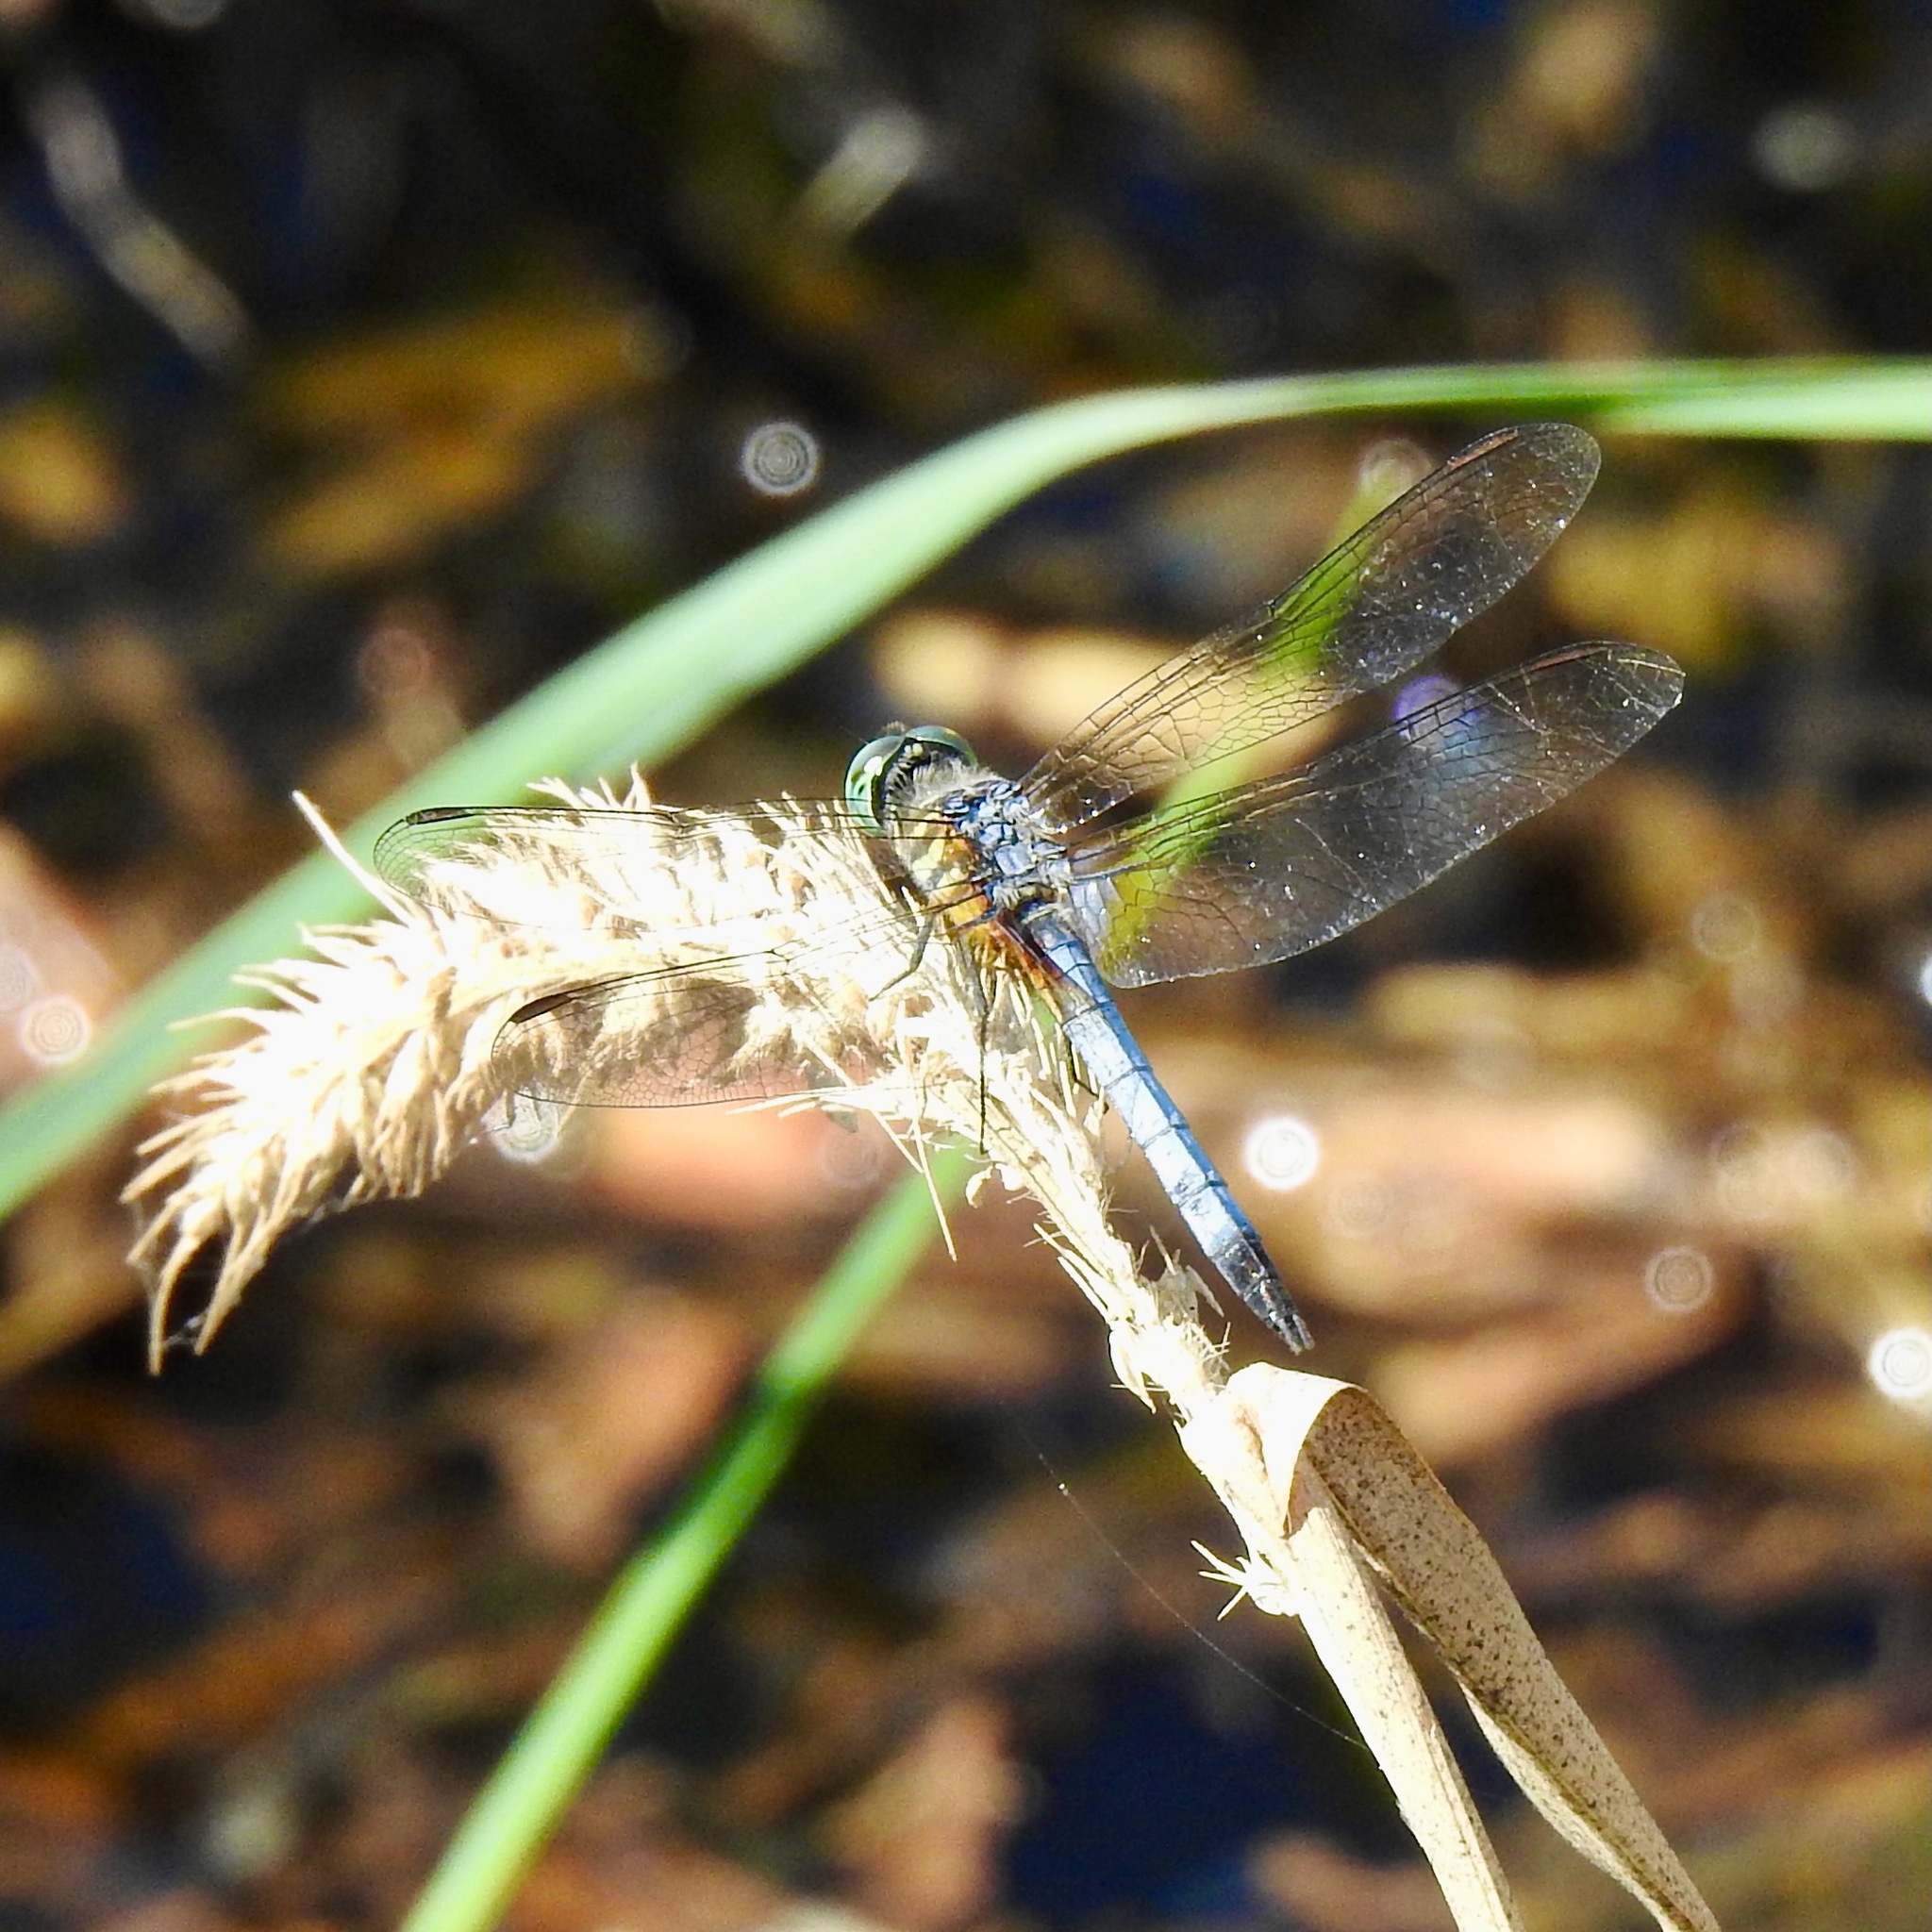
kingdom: Animalia
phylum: Arthropoda
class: Insecta
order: Odonata
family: Libellulidae
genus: Pachydiplax
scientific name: Pachydiplax longipennis
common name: Blue dasher
